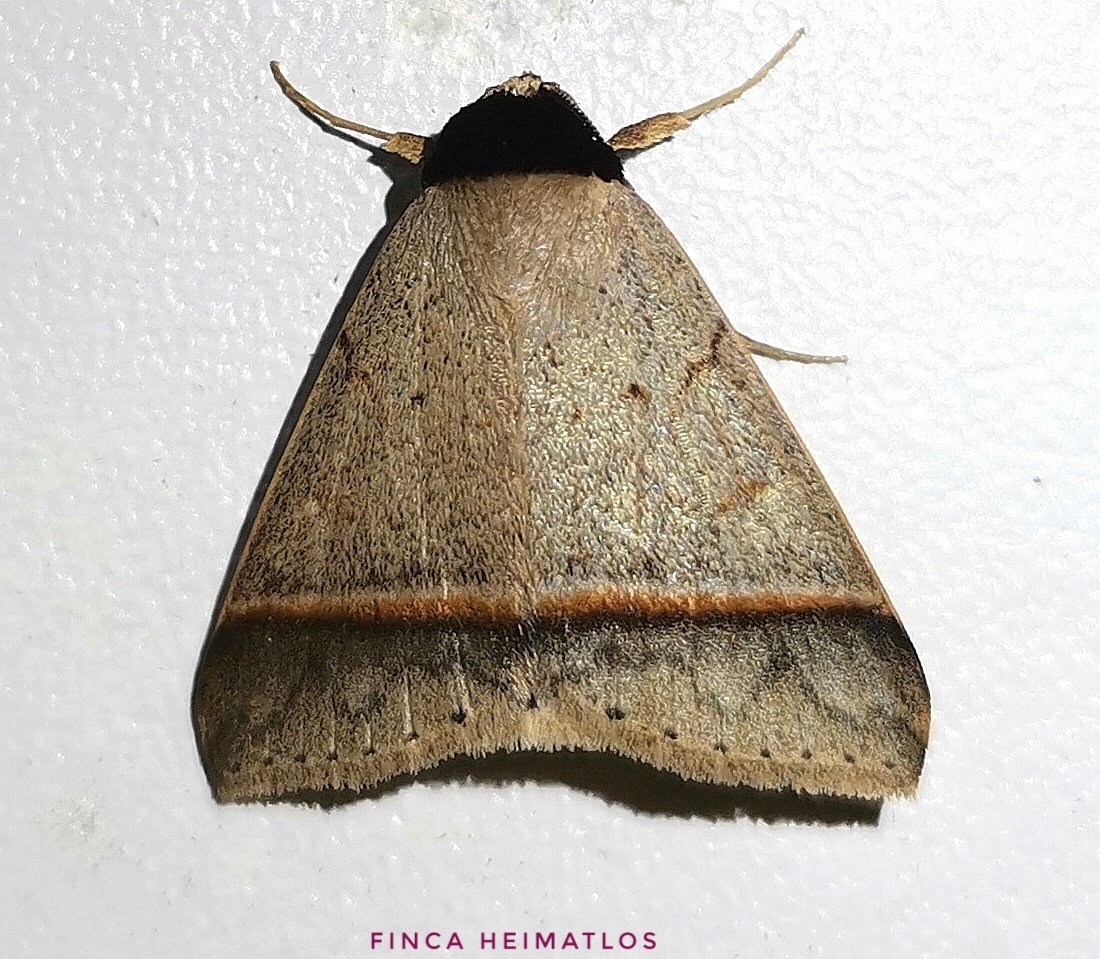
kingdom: Animalia
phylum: Arthropoda
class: Insecta
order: Lepidoptera
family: Erebidae
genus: Deinopa
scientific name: Deinopa delinquens
